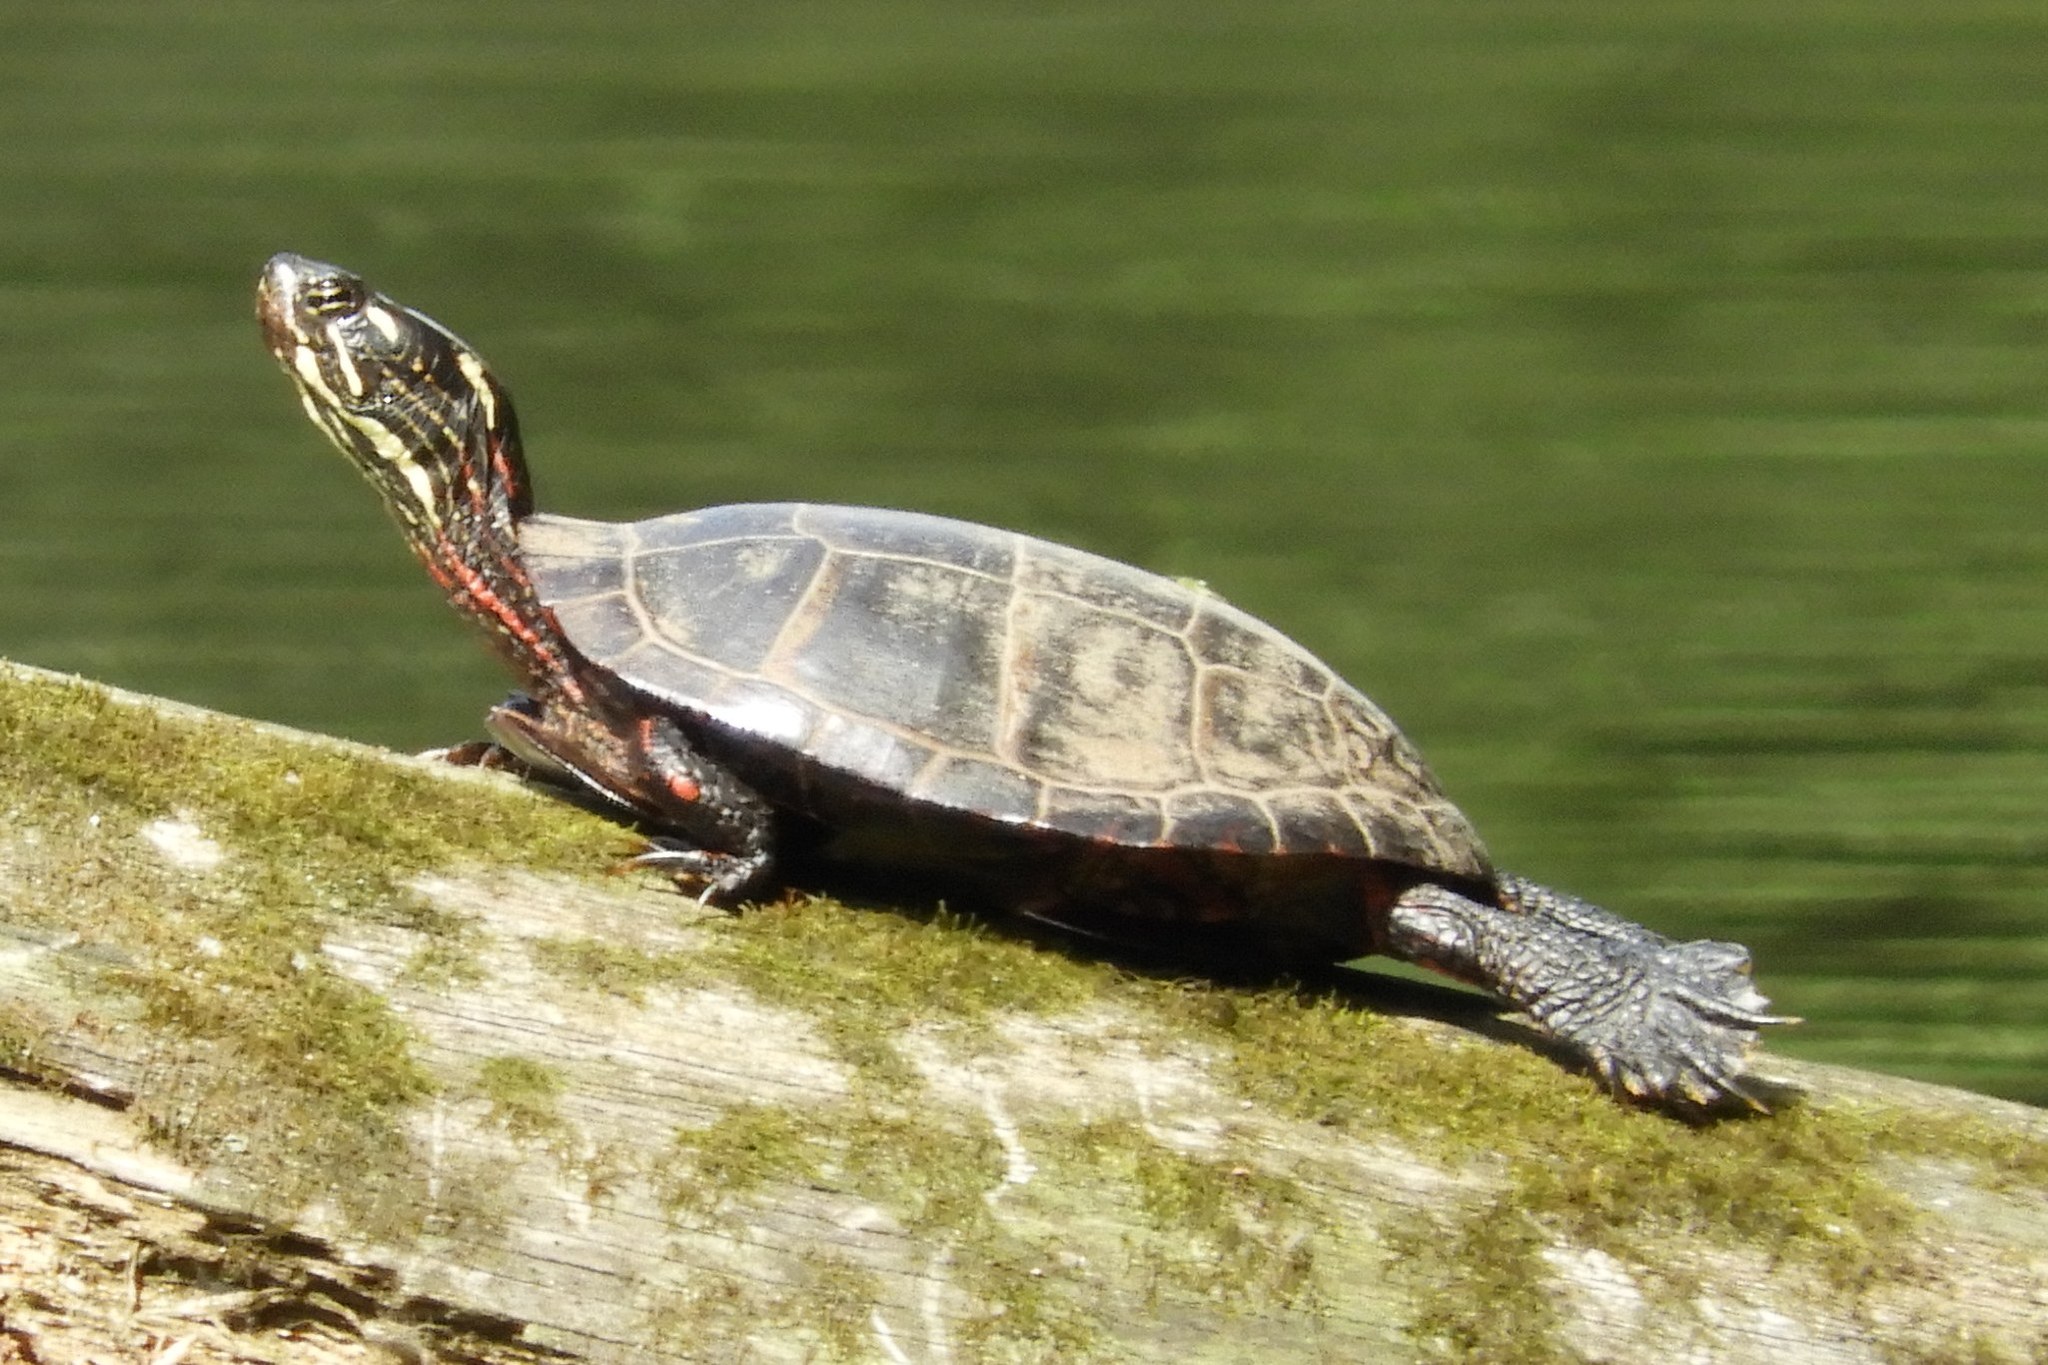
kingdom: Animalia
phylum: Chordata
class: Testudines
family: Emydidae
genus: Chrysemys
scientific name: Chrysemys picta
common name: Painted turtle
